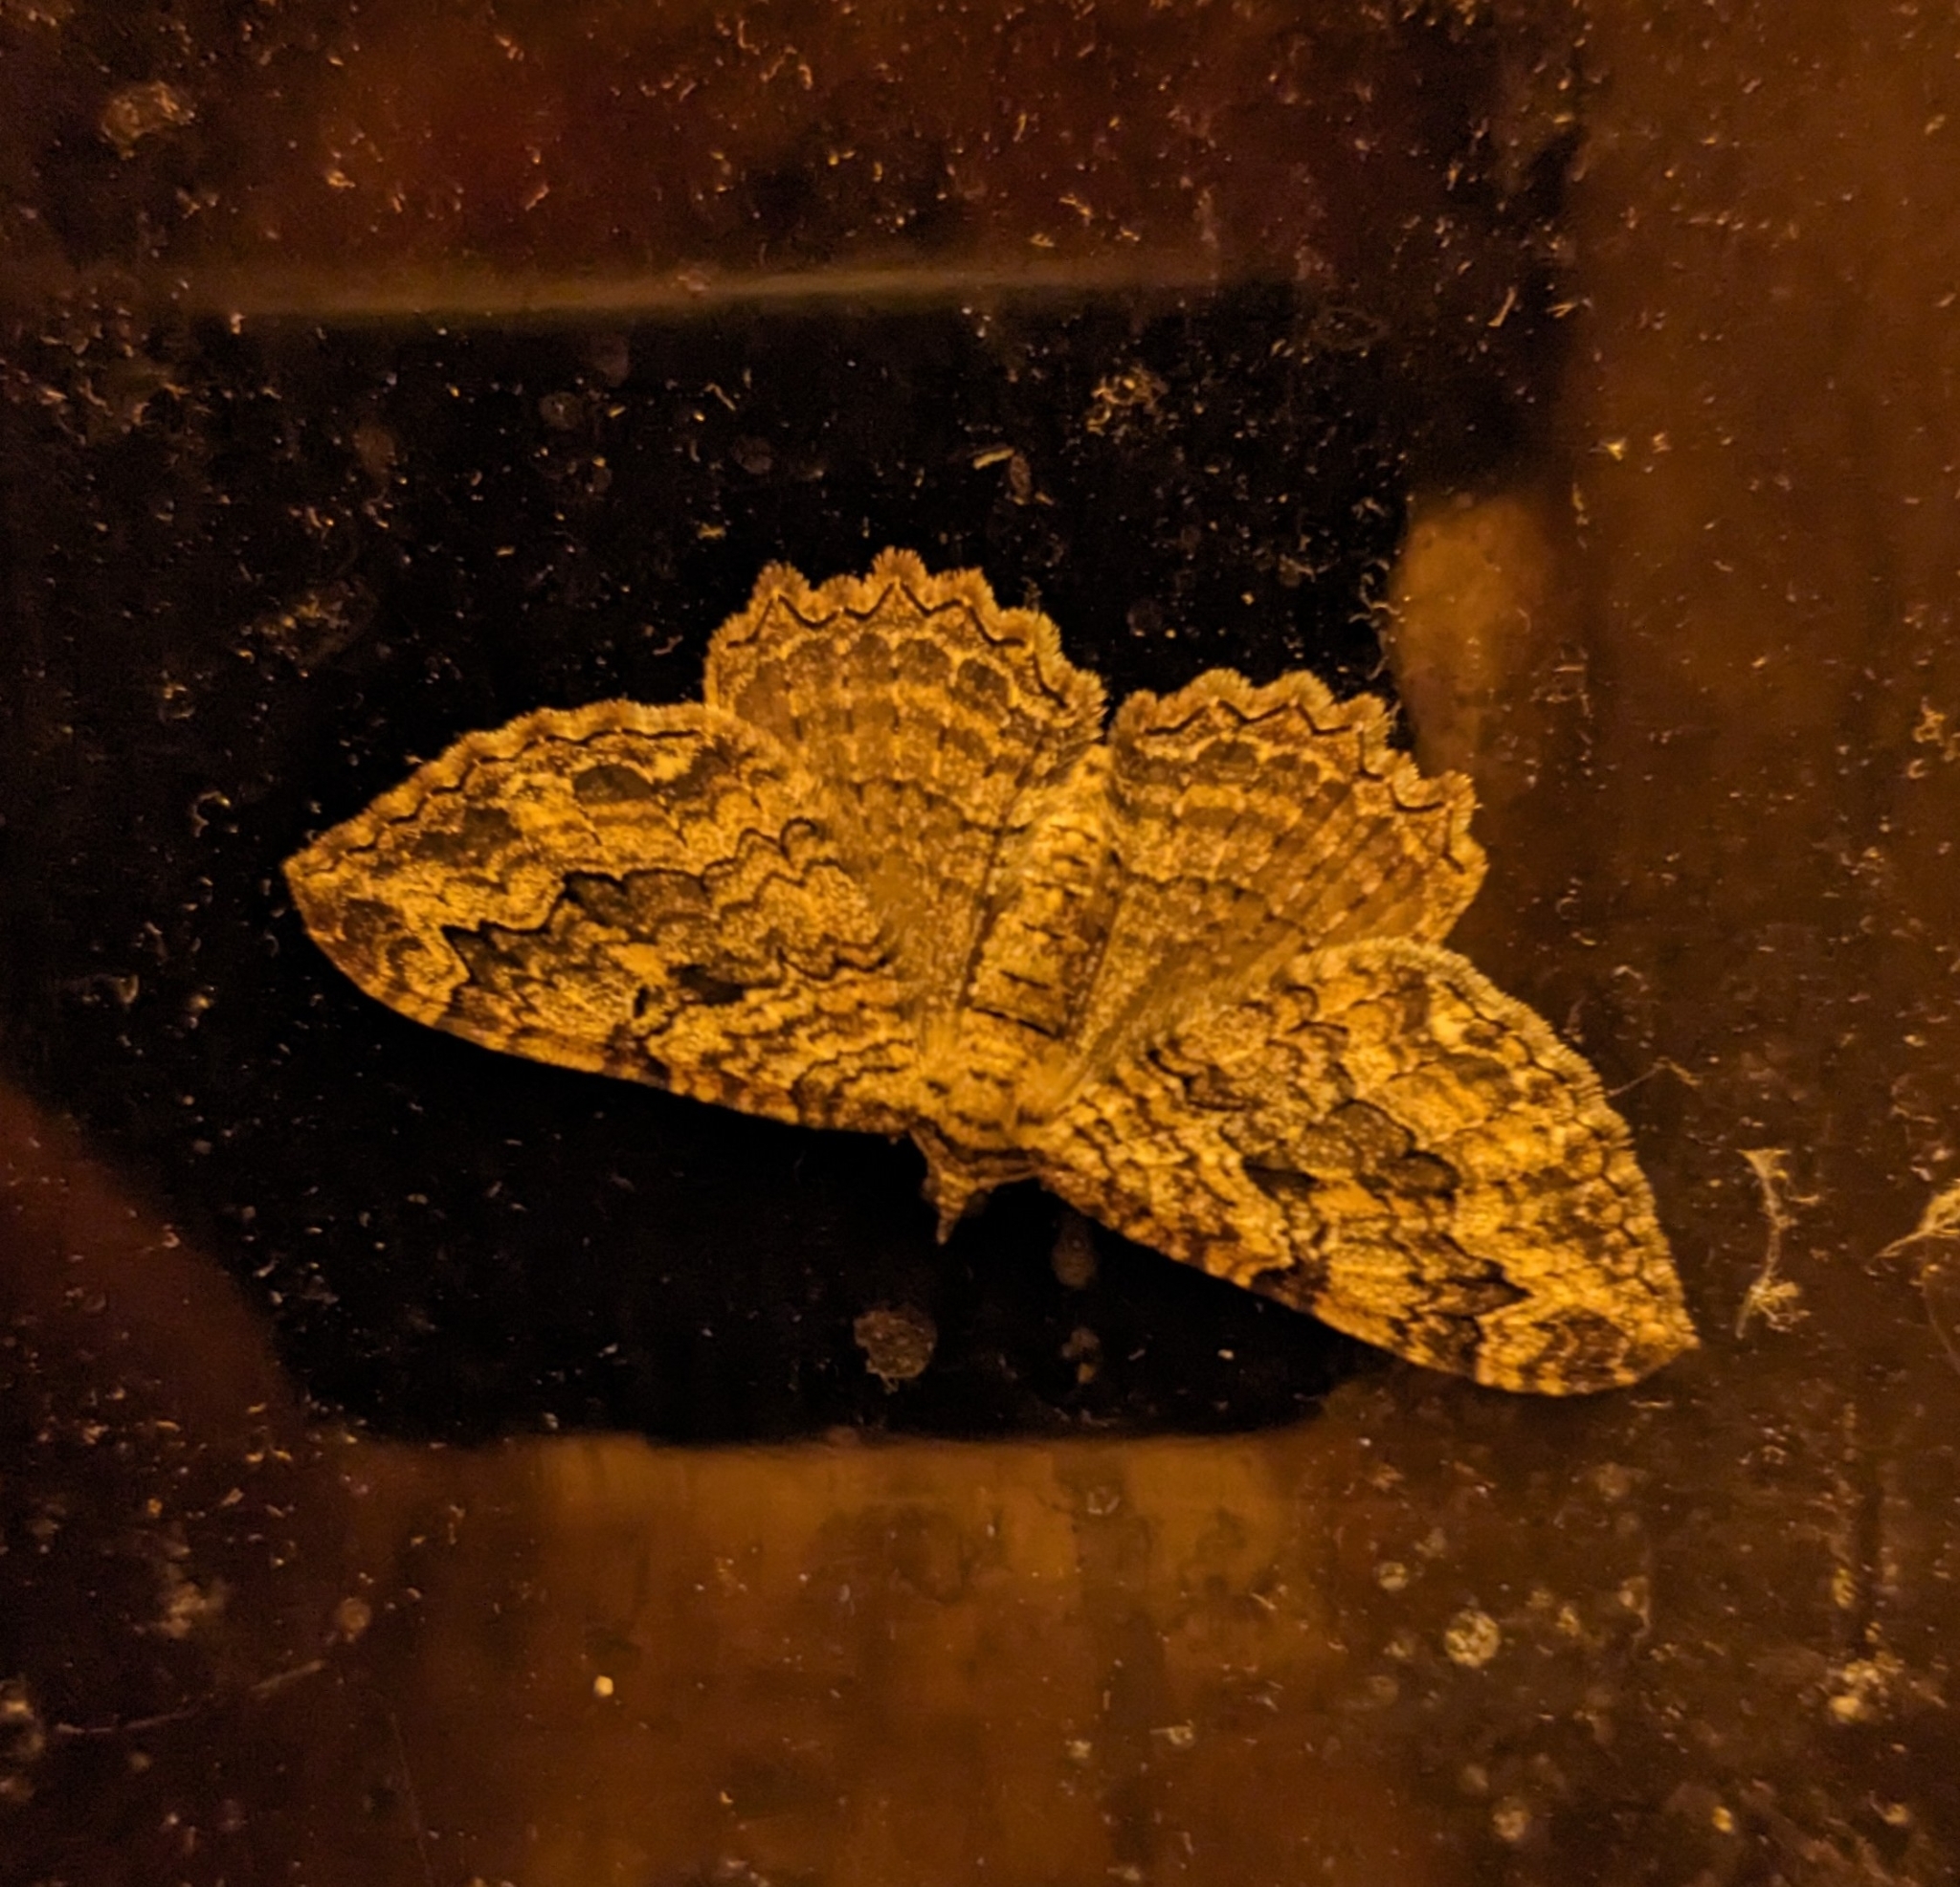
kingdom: Animalia
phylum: Arthropoda
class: Insecta
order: Lepidoptera
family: Geometridae
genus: Rheumaptera
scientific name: Rheumaptera
